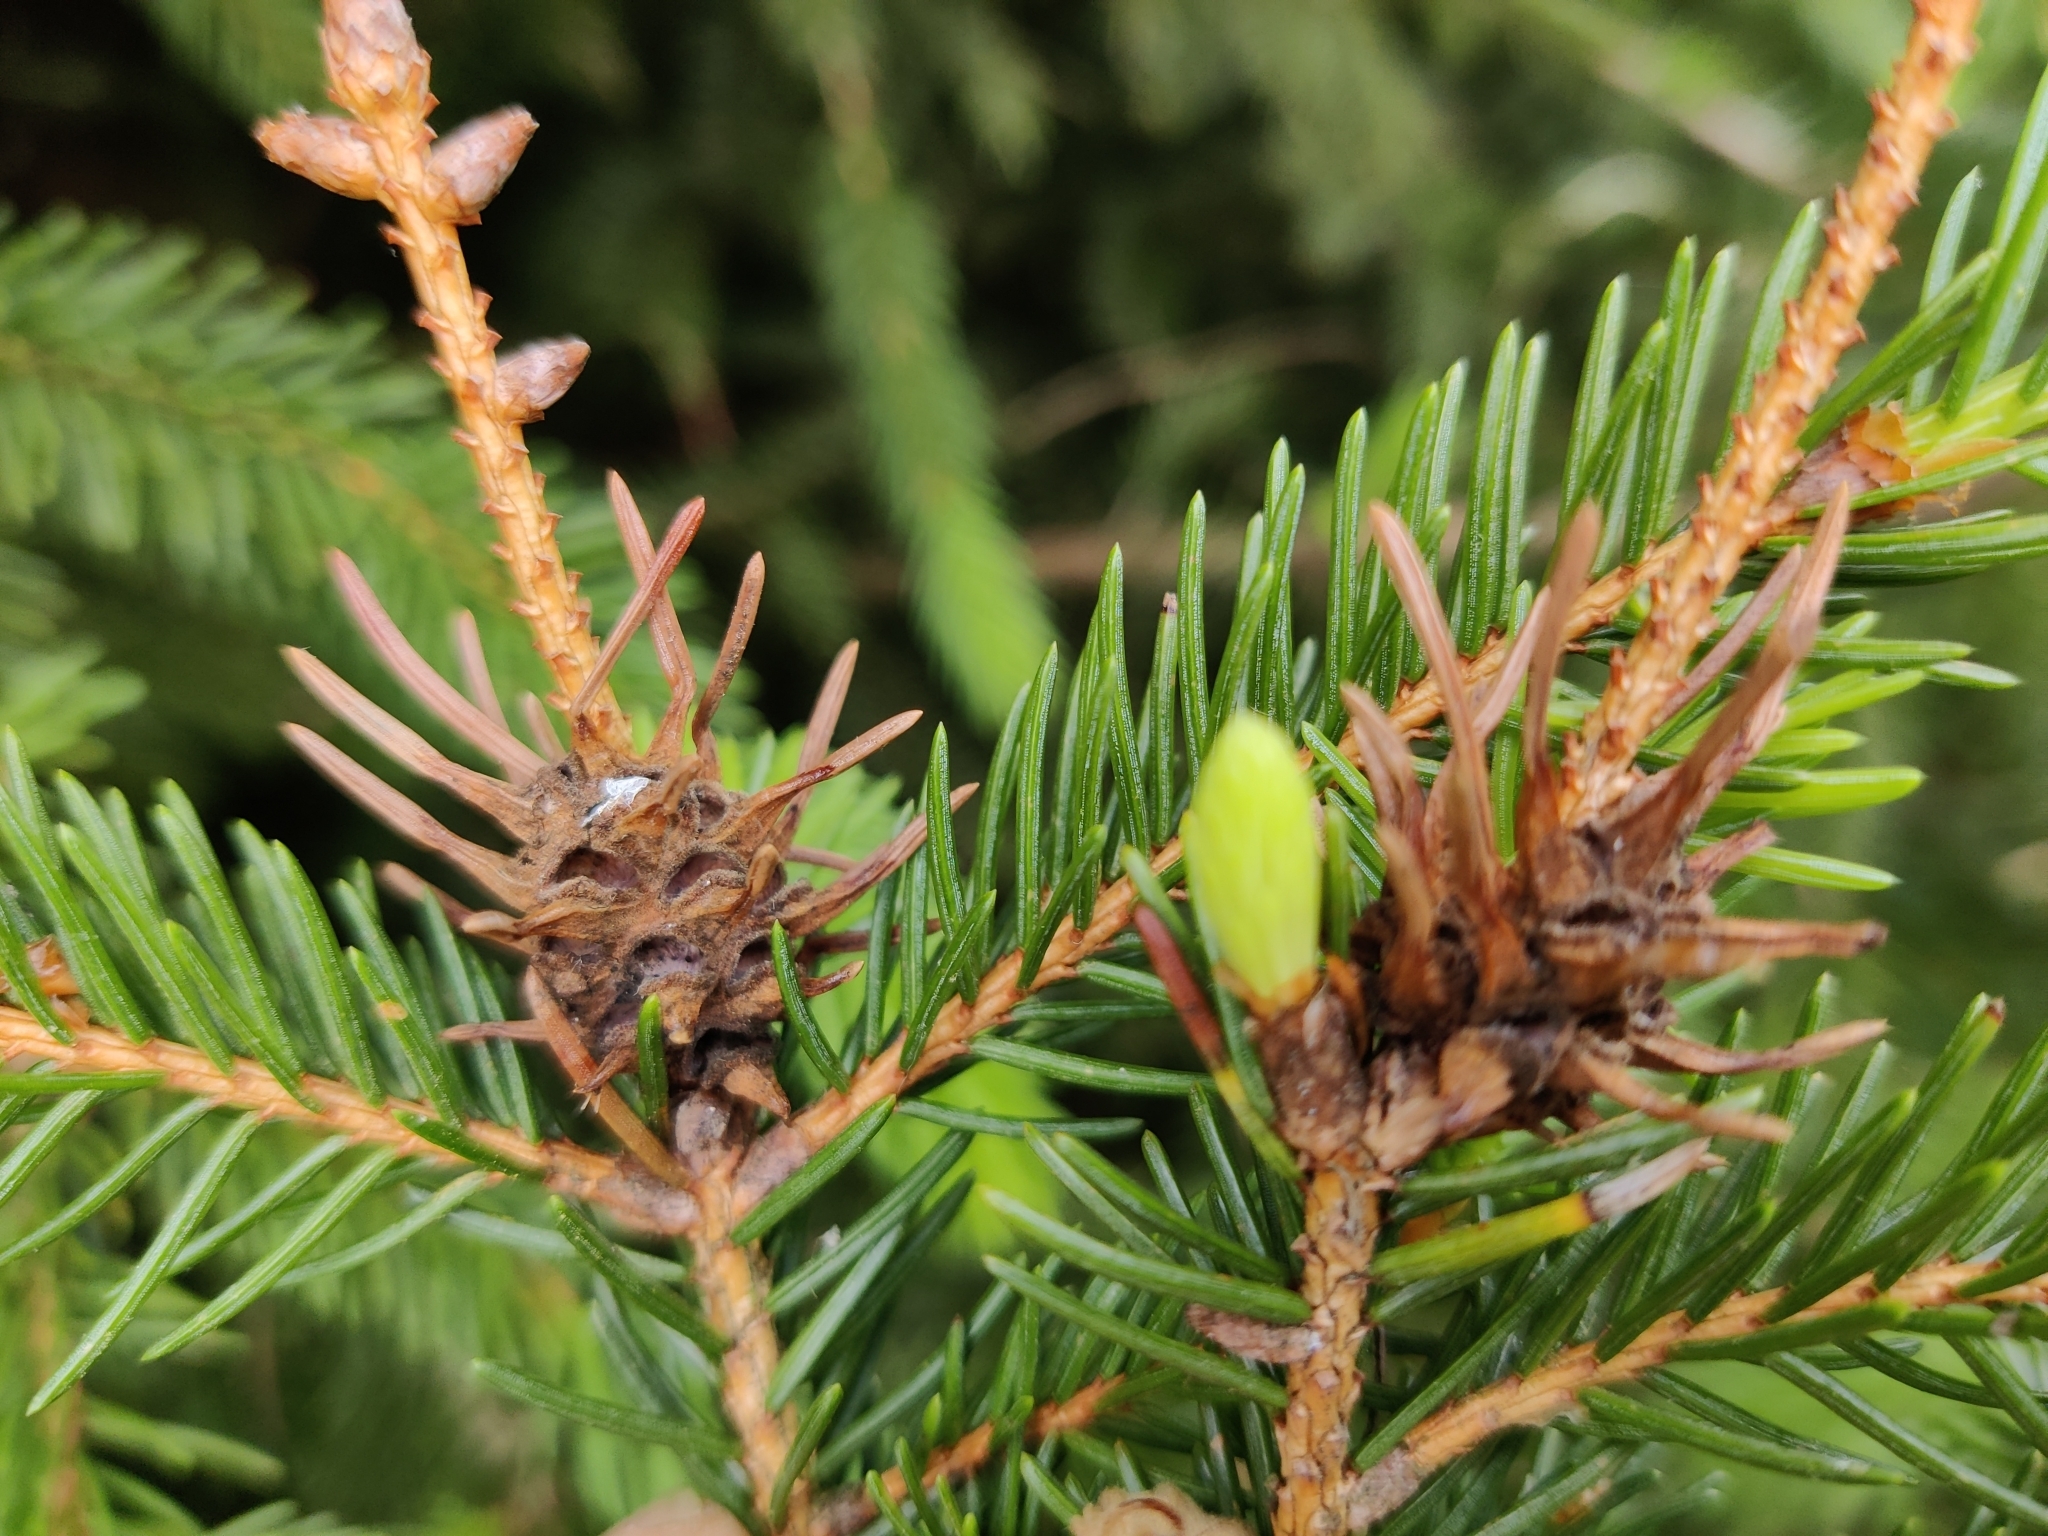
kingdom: Animalia
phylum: Arthropoda
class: Insecta
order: Hemiptera
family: Adelgidae
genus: Adelges
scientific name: Adelges abietis
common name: Eastern spruce gall adelgid
